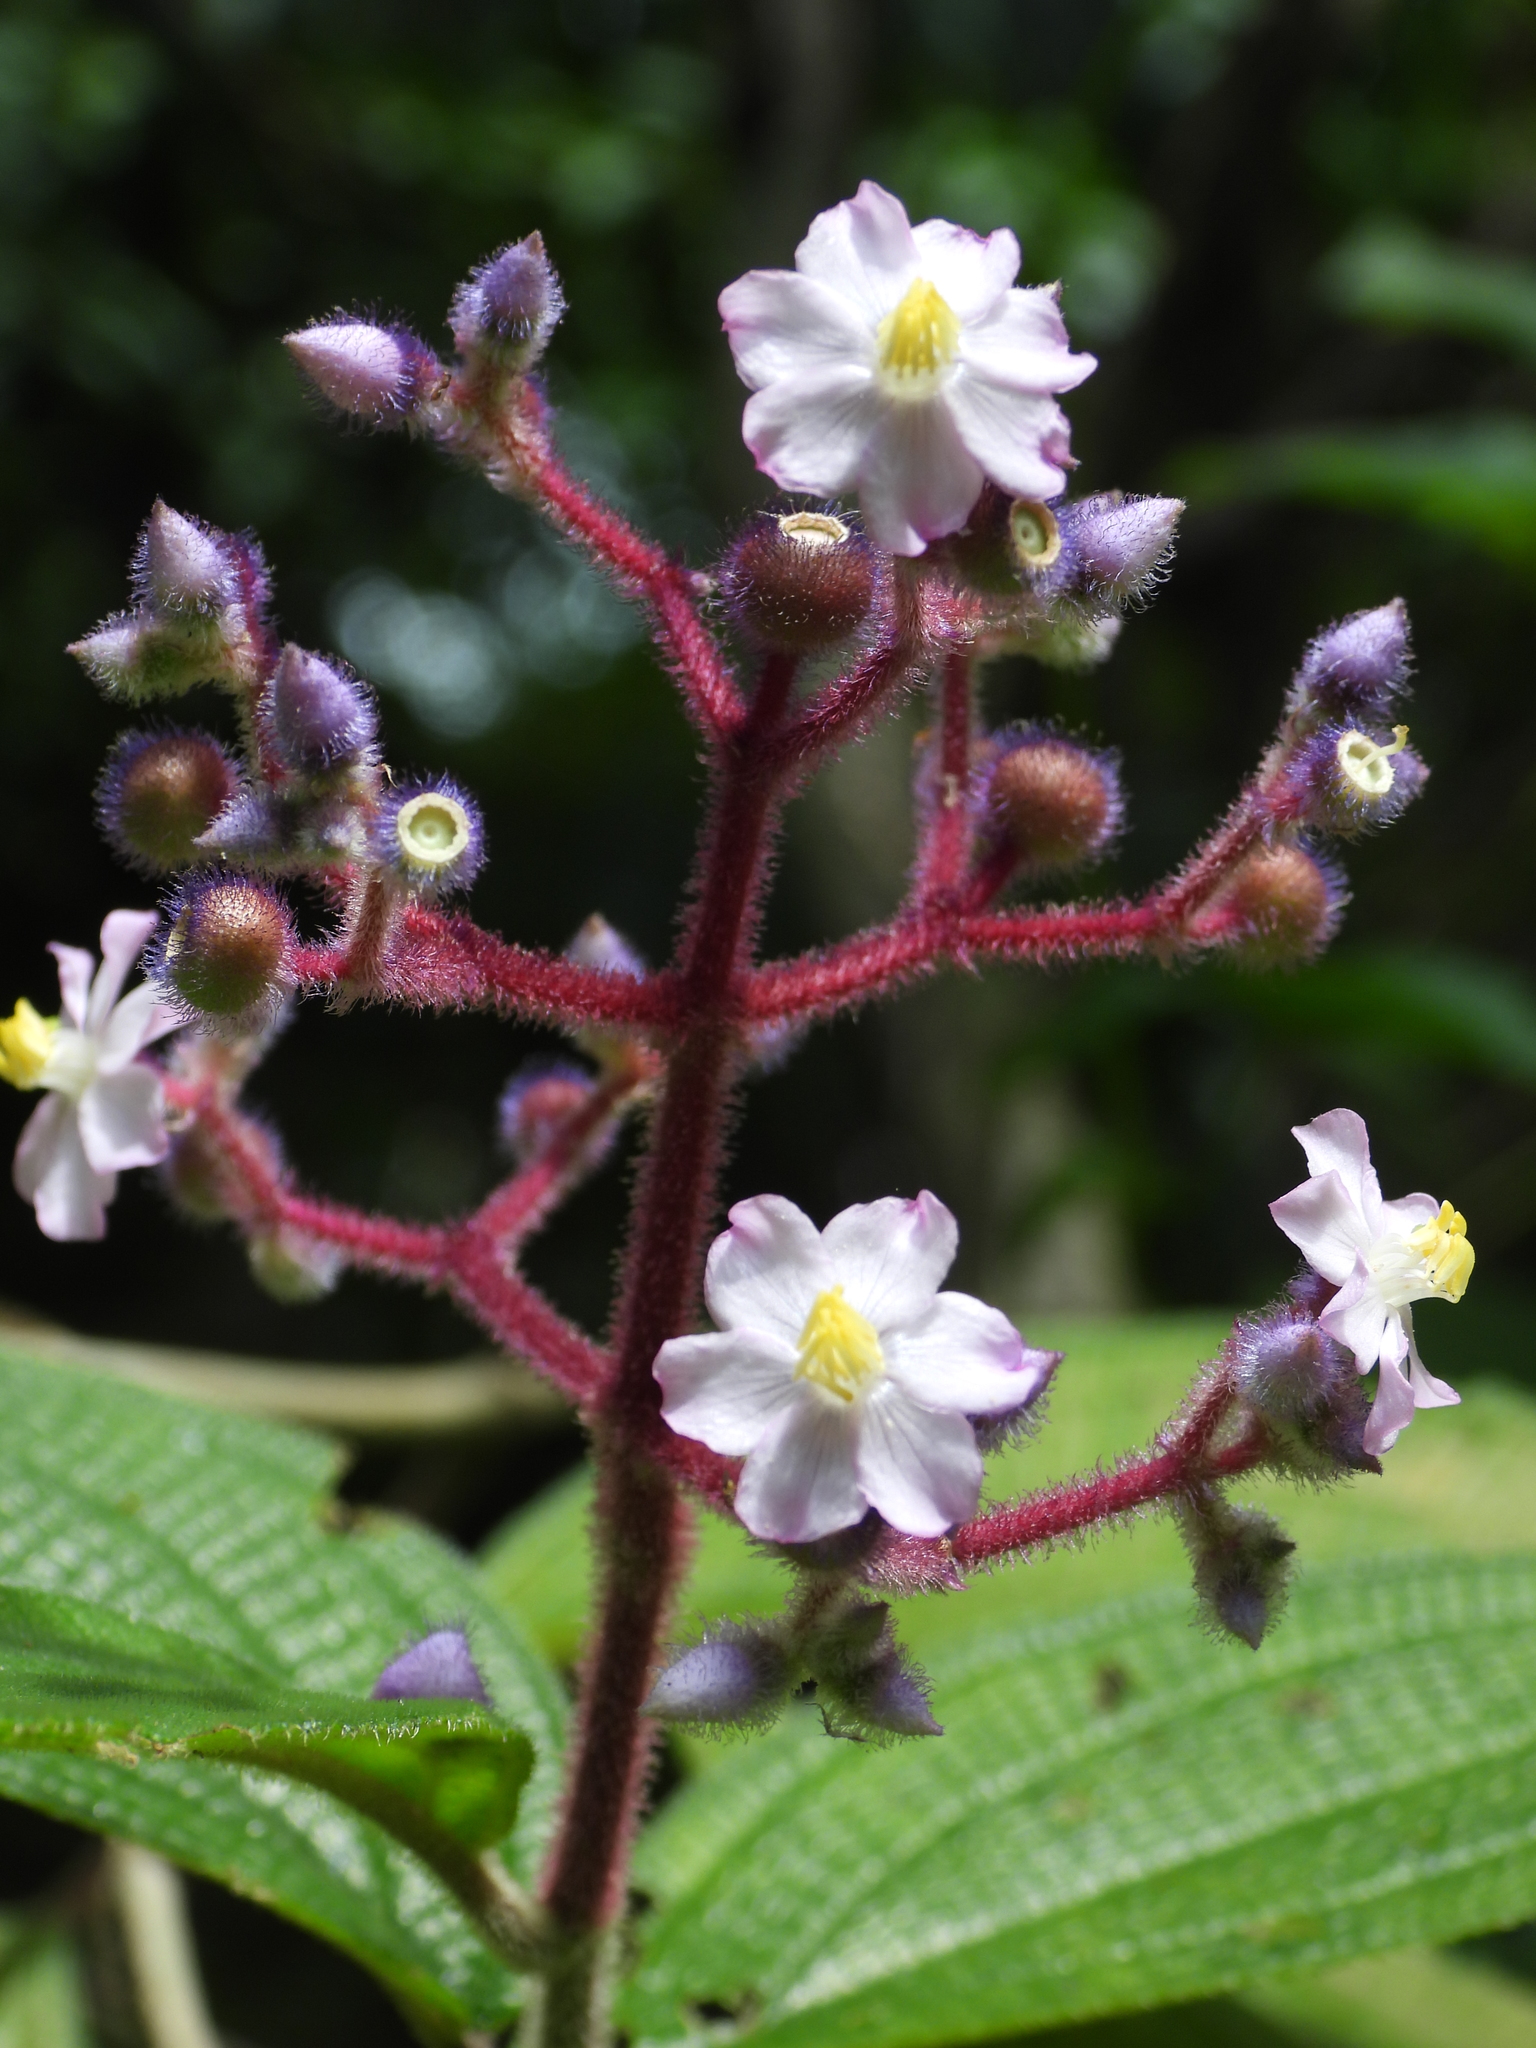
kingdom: Plantae
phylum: Tracheophyta
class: Magnoliopsida
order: Myrtales
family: Melastomataceae
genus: Miconia
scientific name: Miconia conospeciosa
